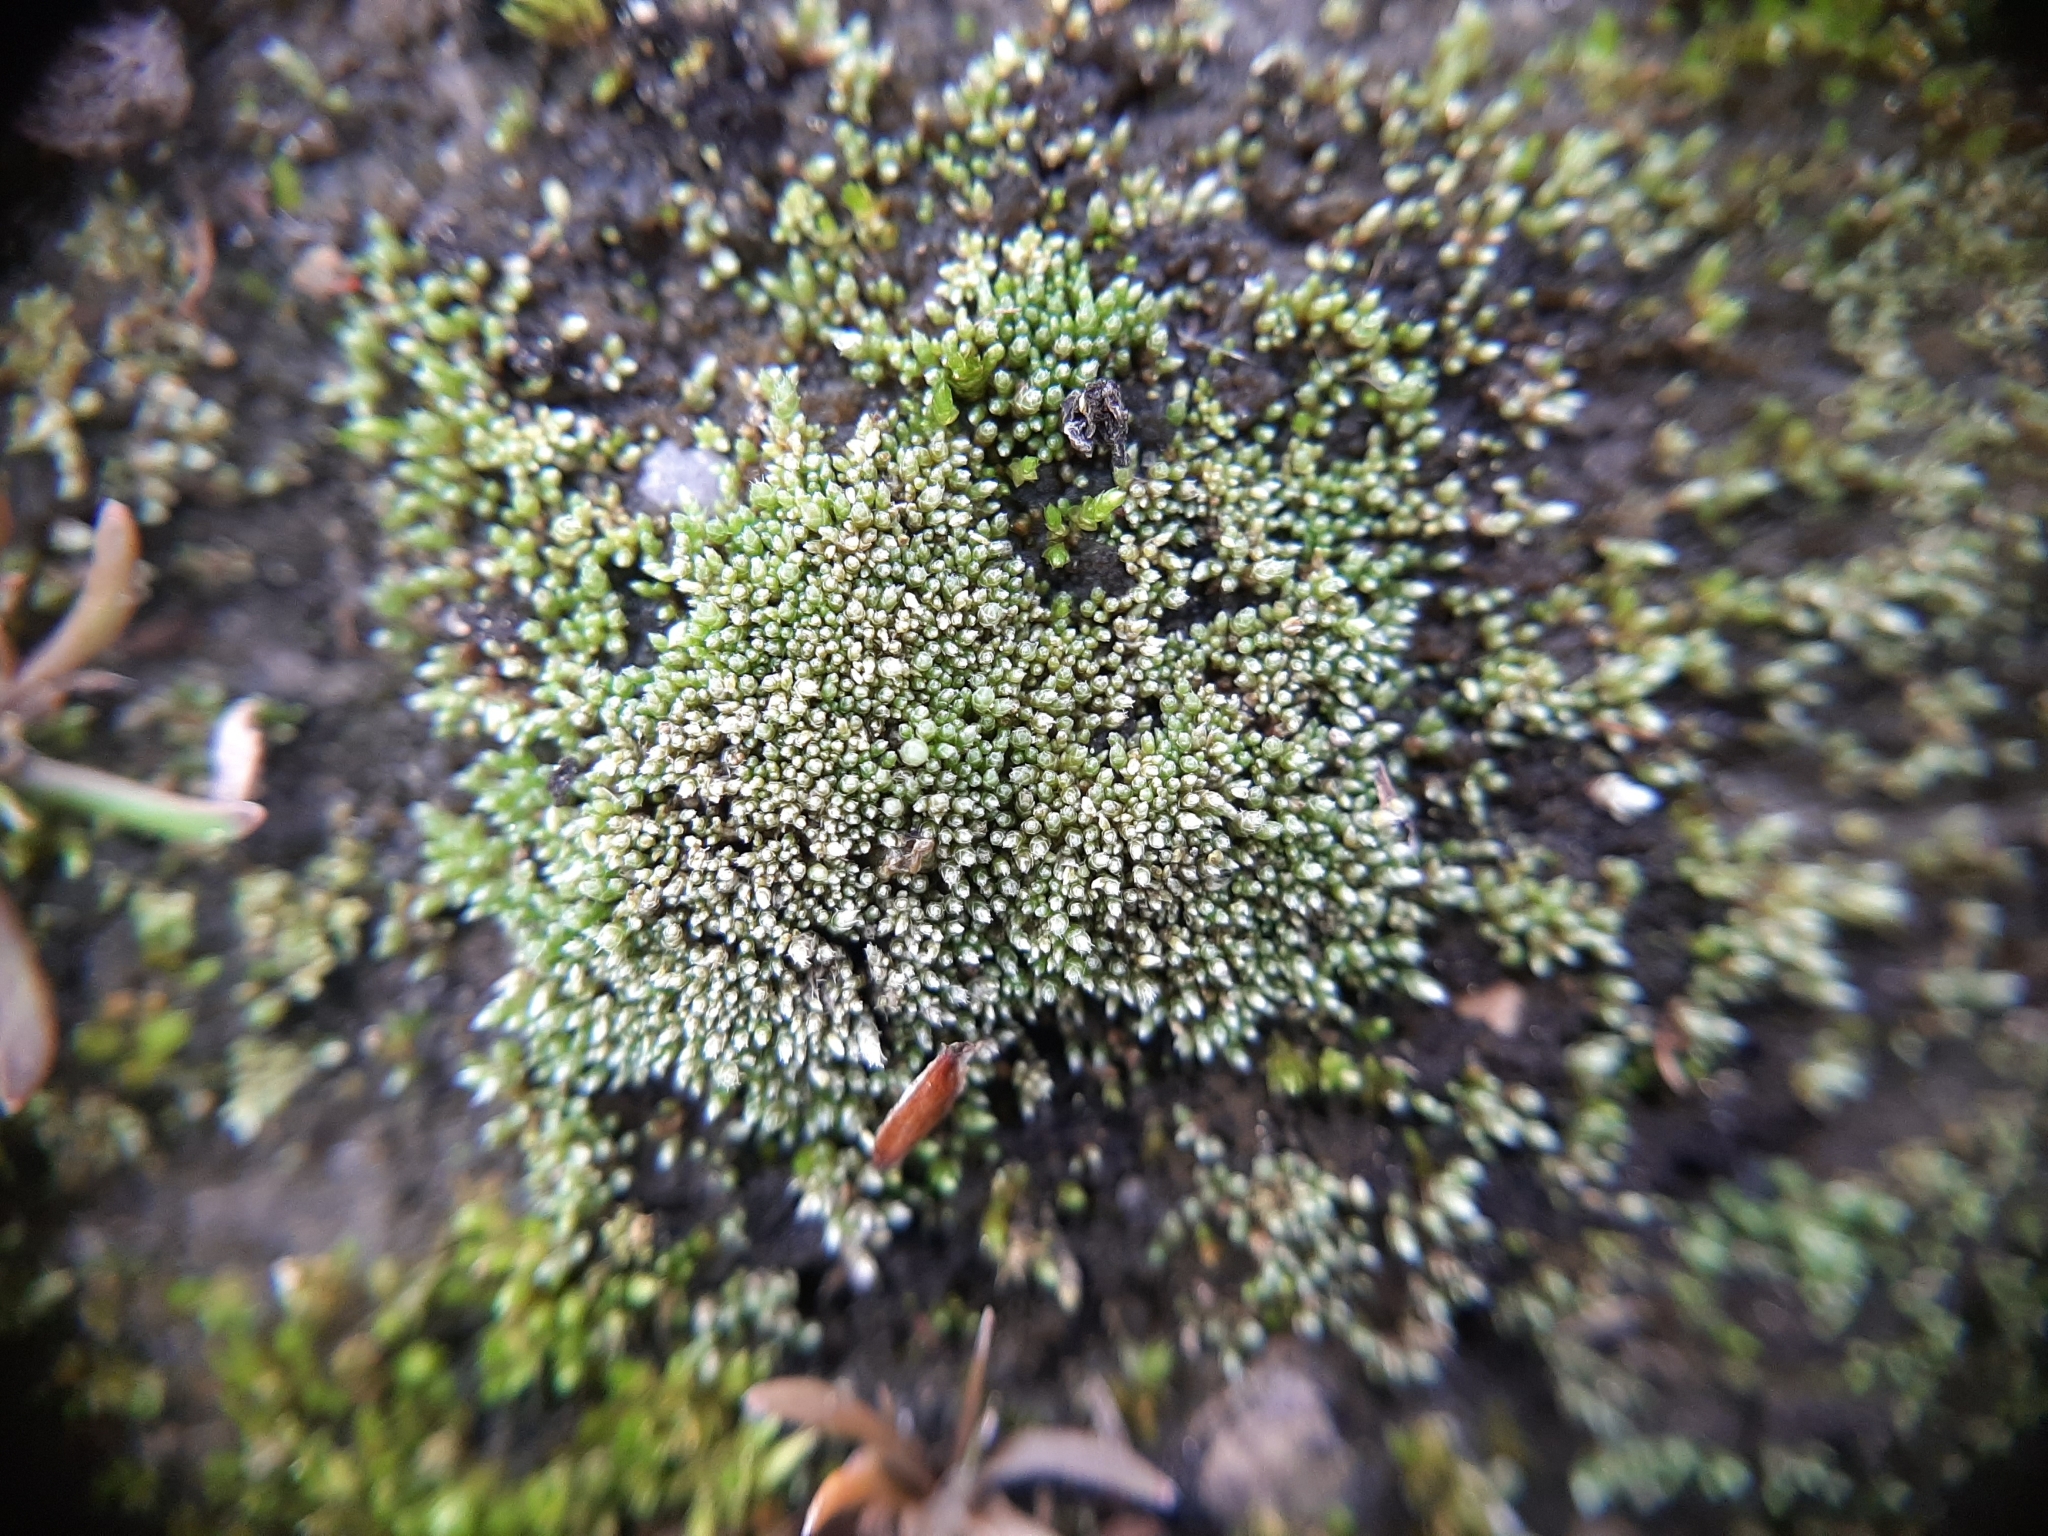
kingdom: Plantae
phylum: Bryophyta
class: Bryopsida
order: Bryales
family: Bryaceae
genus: Bryum
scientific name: Bryum argenteum
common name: Silver-moss
